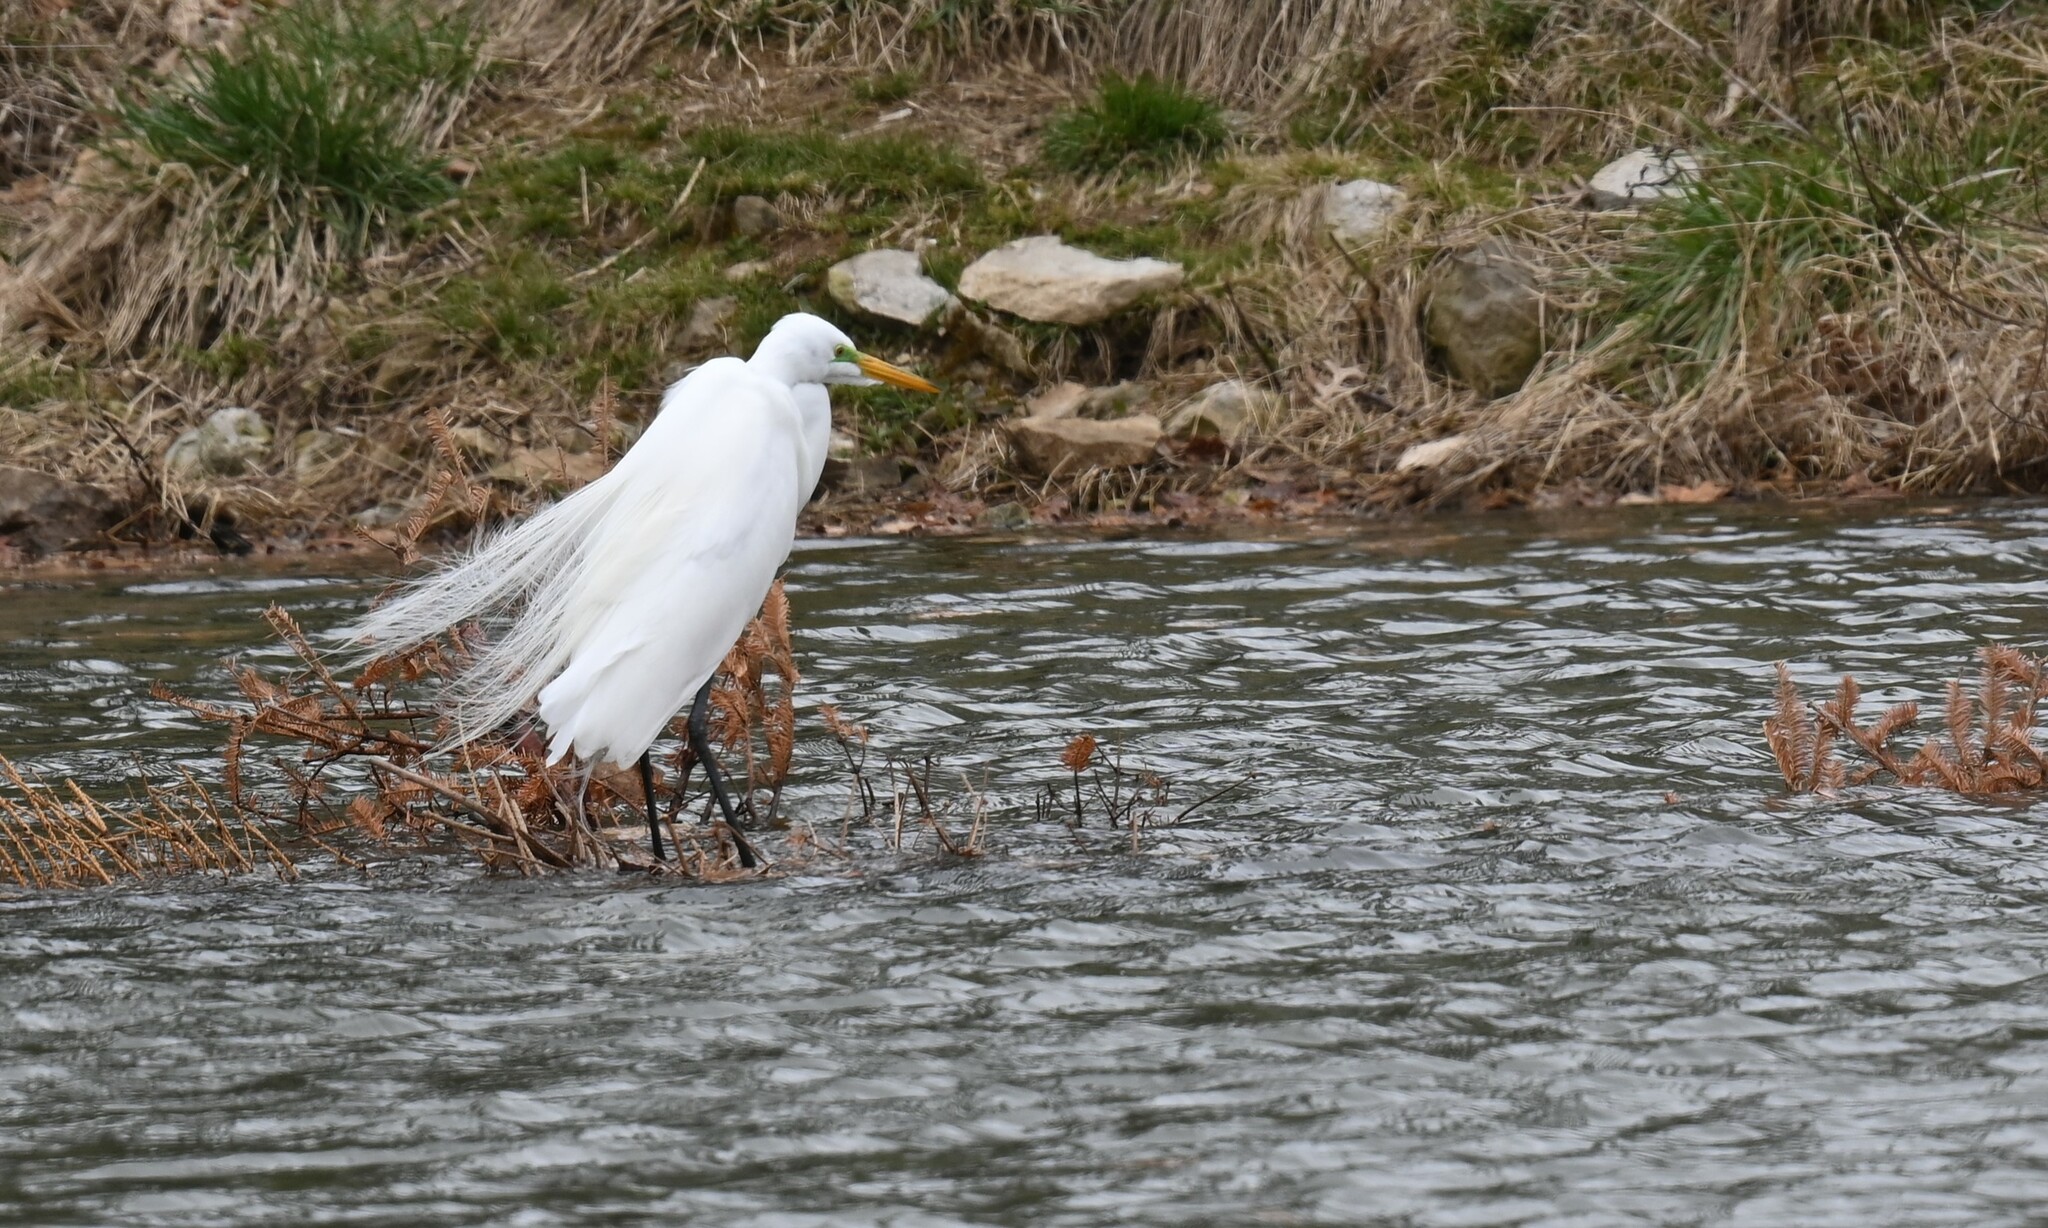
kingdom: Animalia
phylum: Chordata
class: Aves
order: Pelecaniformes
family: Ardeidae
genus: Ardea
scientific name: Ardea alba
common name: Great egret
